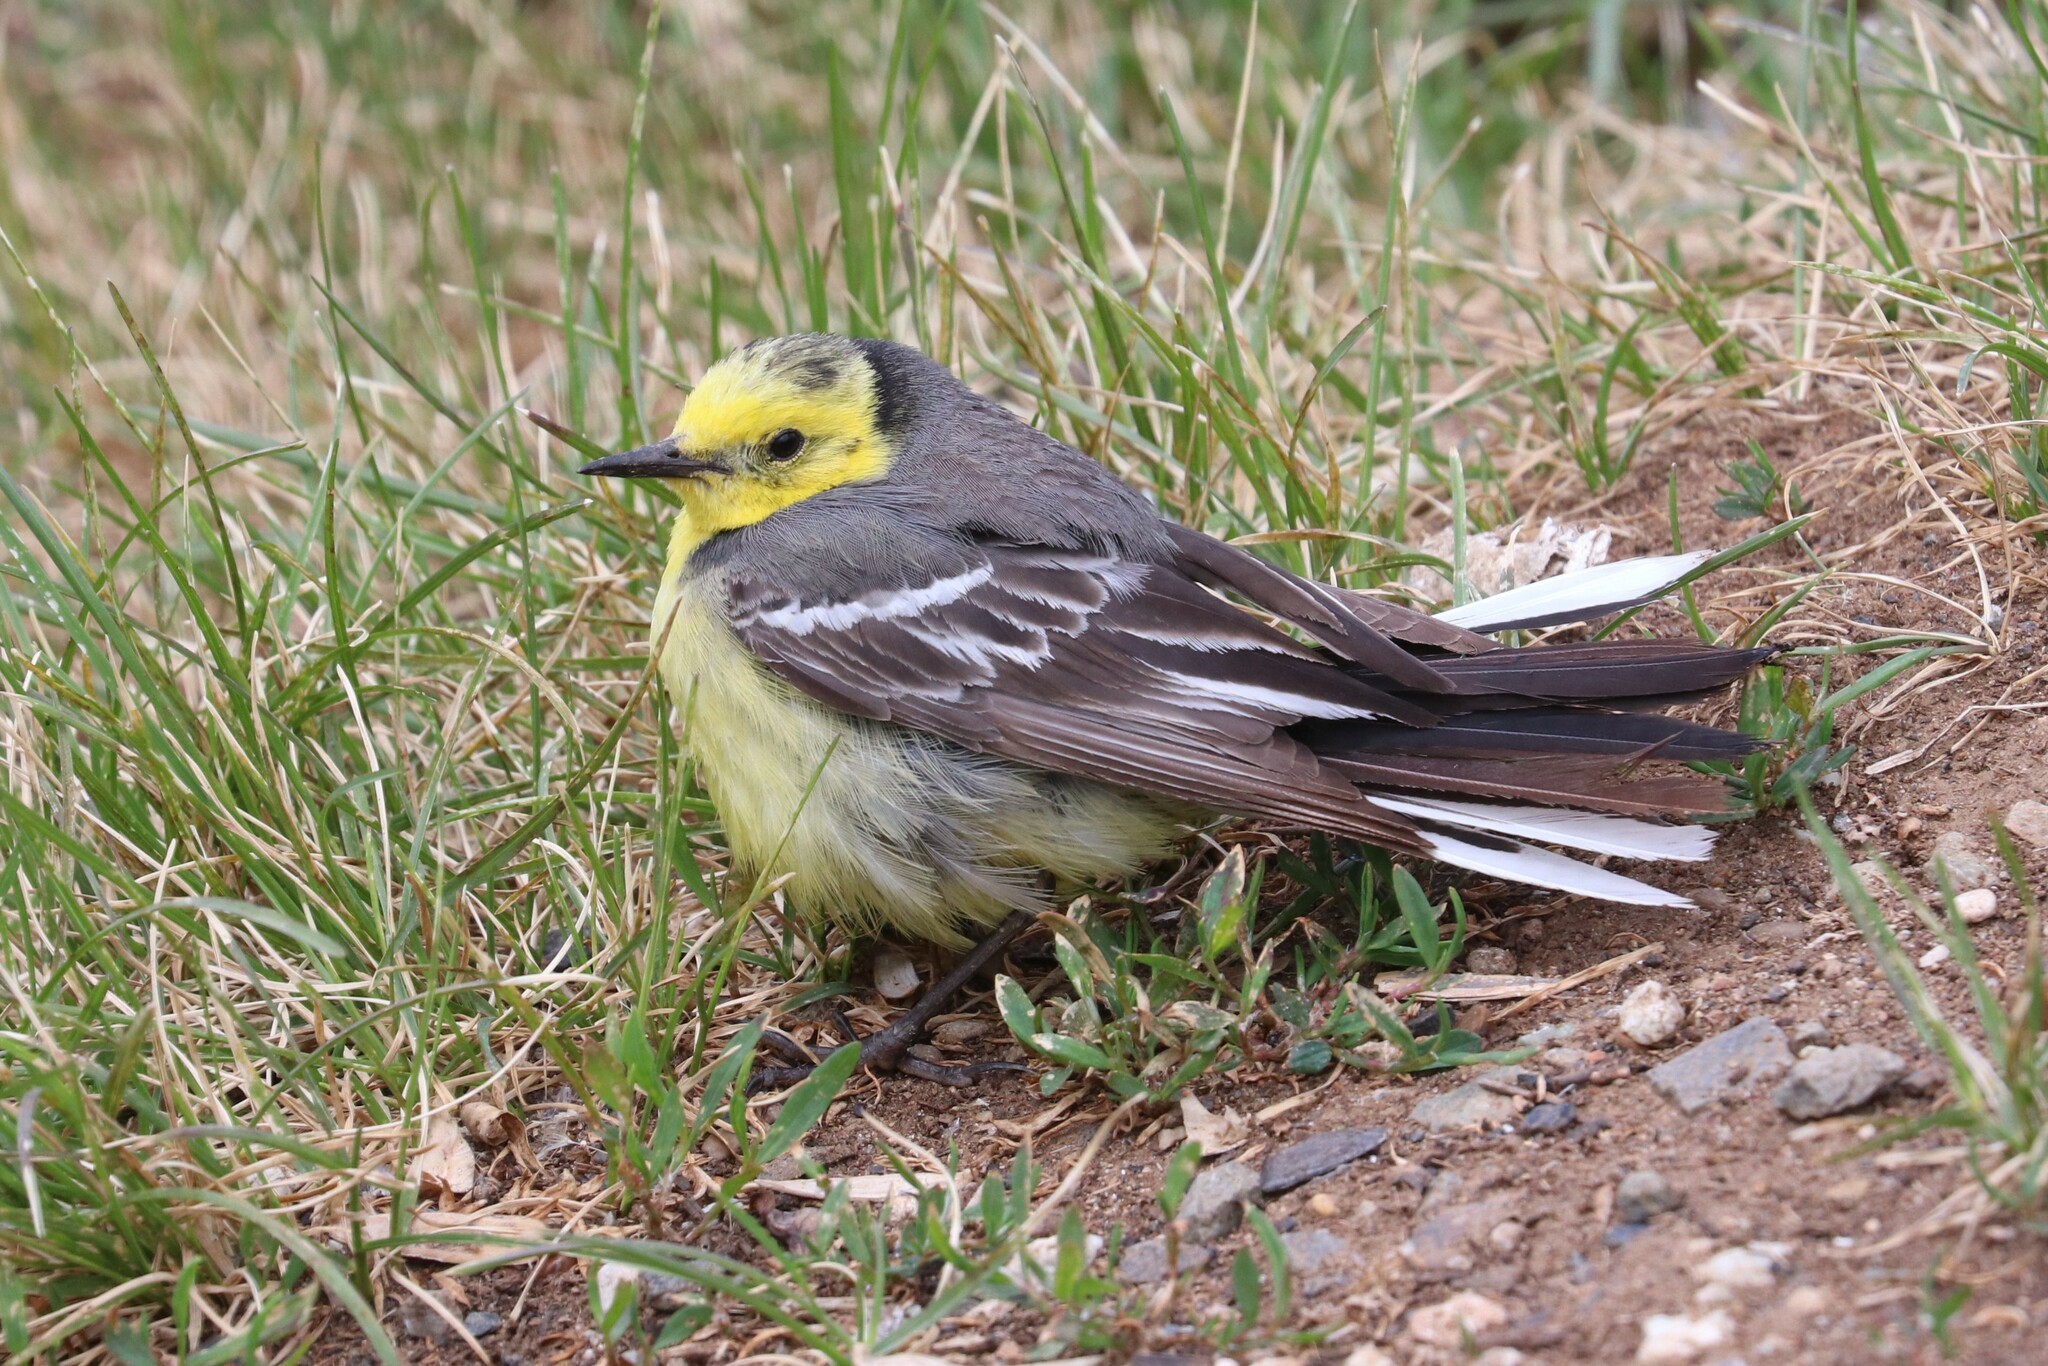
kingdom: Animalia
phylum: Chordata
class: Aves
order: Passeriformes
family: Motacillidae
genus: Motacilla
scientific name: Motacilla citreola
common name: Citrine wagtail
